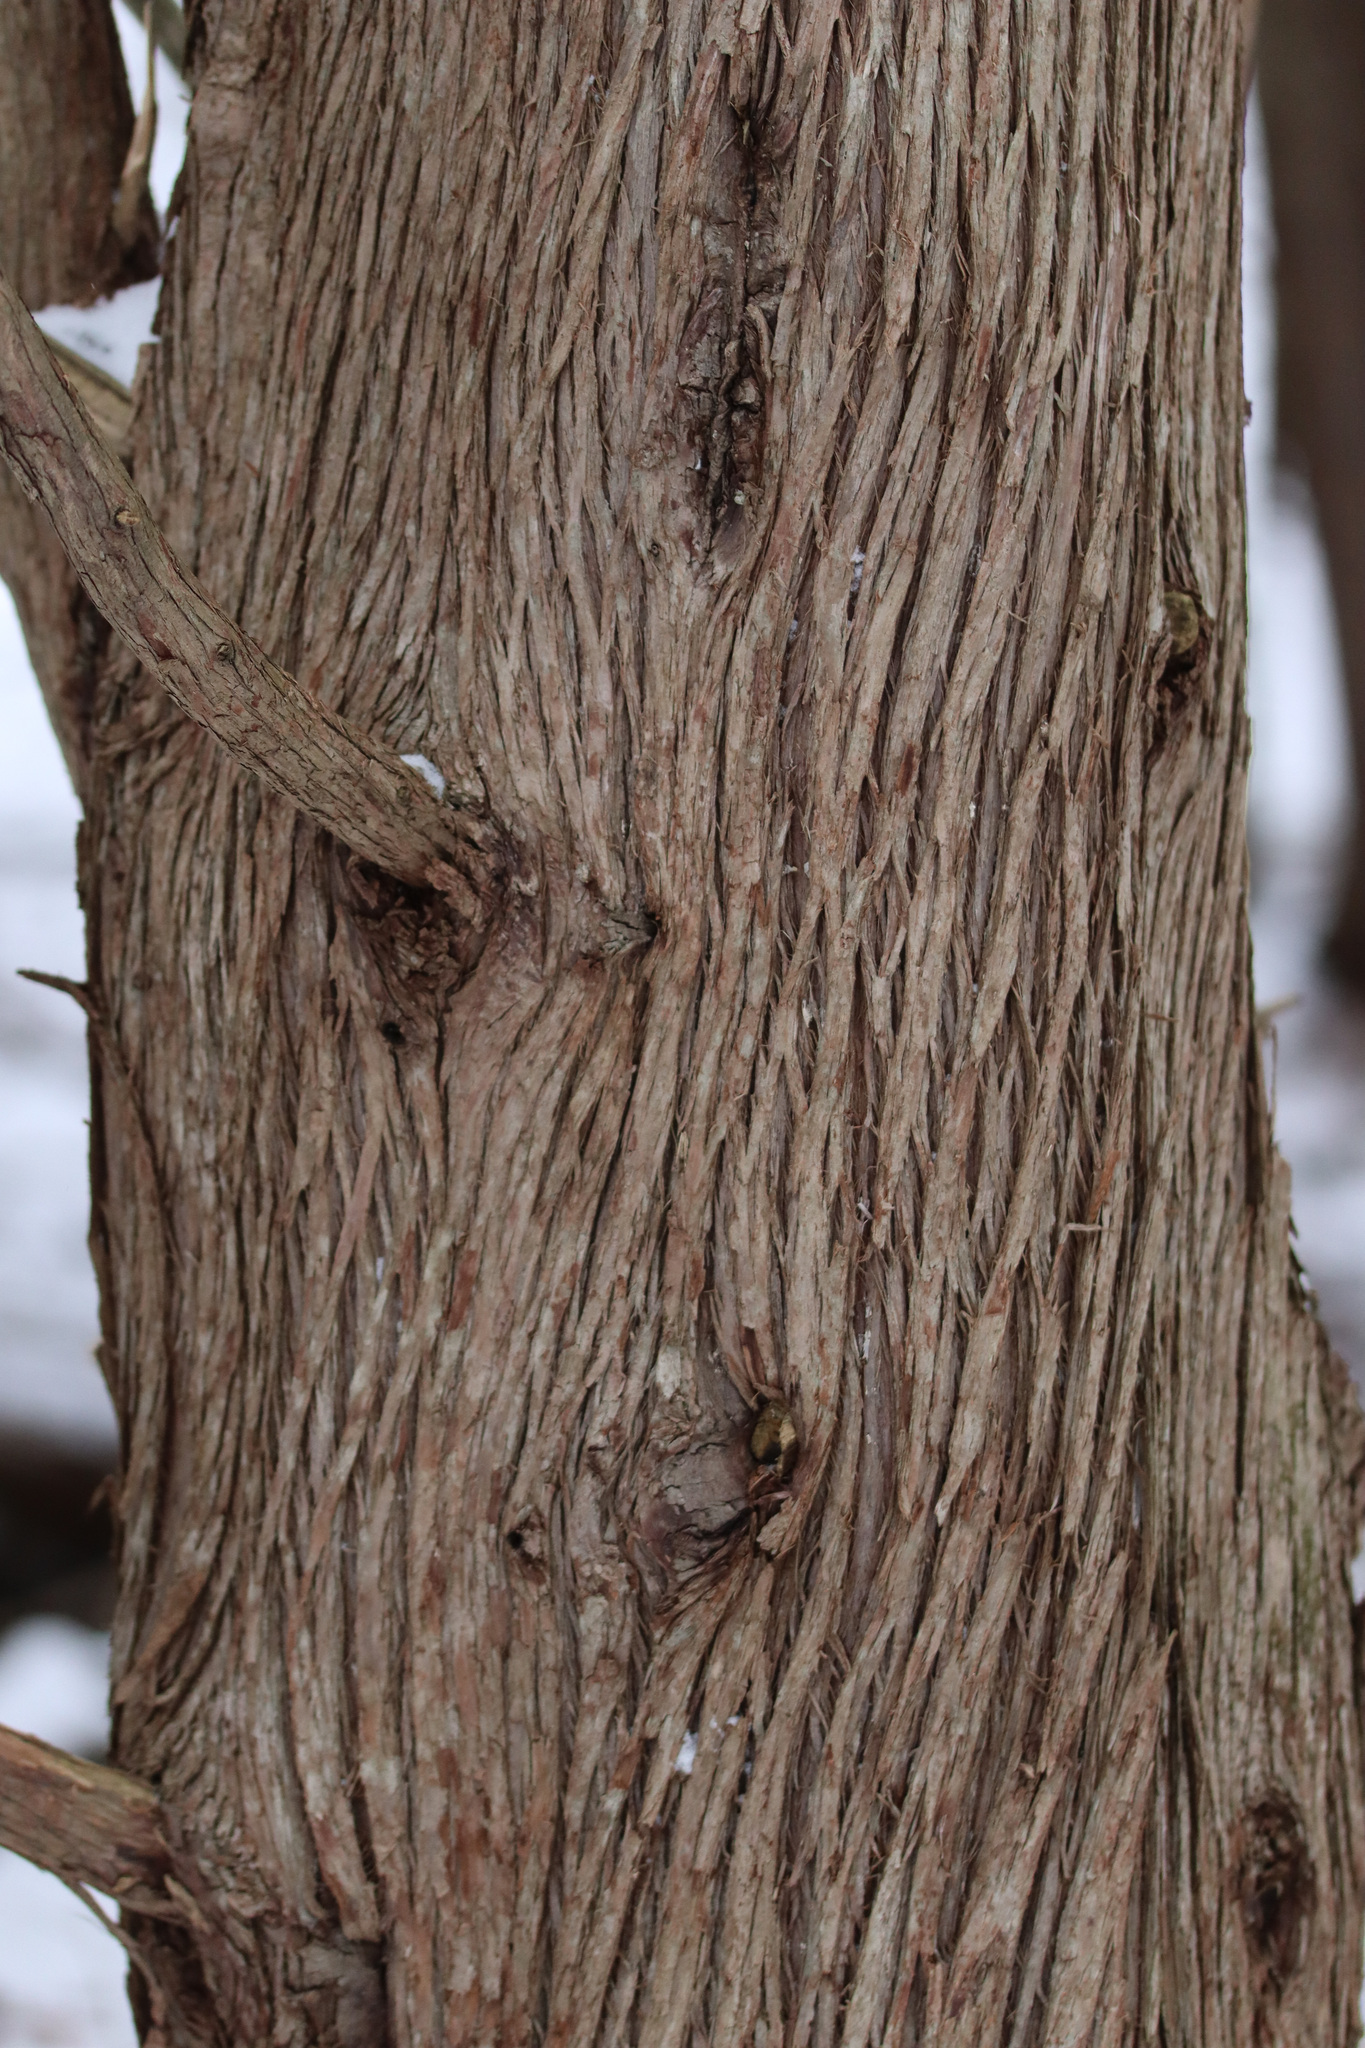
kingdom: Plantae
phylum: Tracheophyta
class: Pinopsida
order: Pinales
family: Cupressaceae
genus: Thuja
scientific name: Thuja occidentalis
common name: Northern white-cedar
